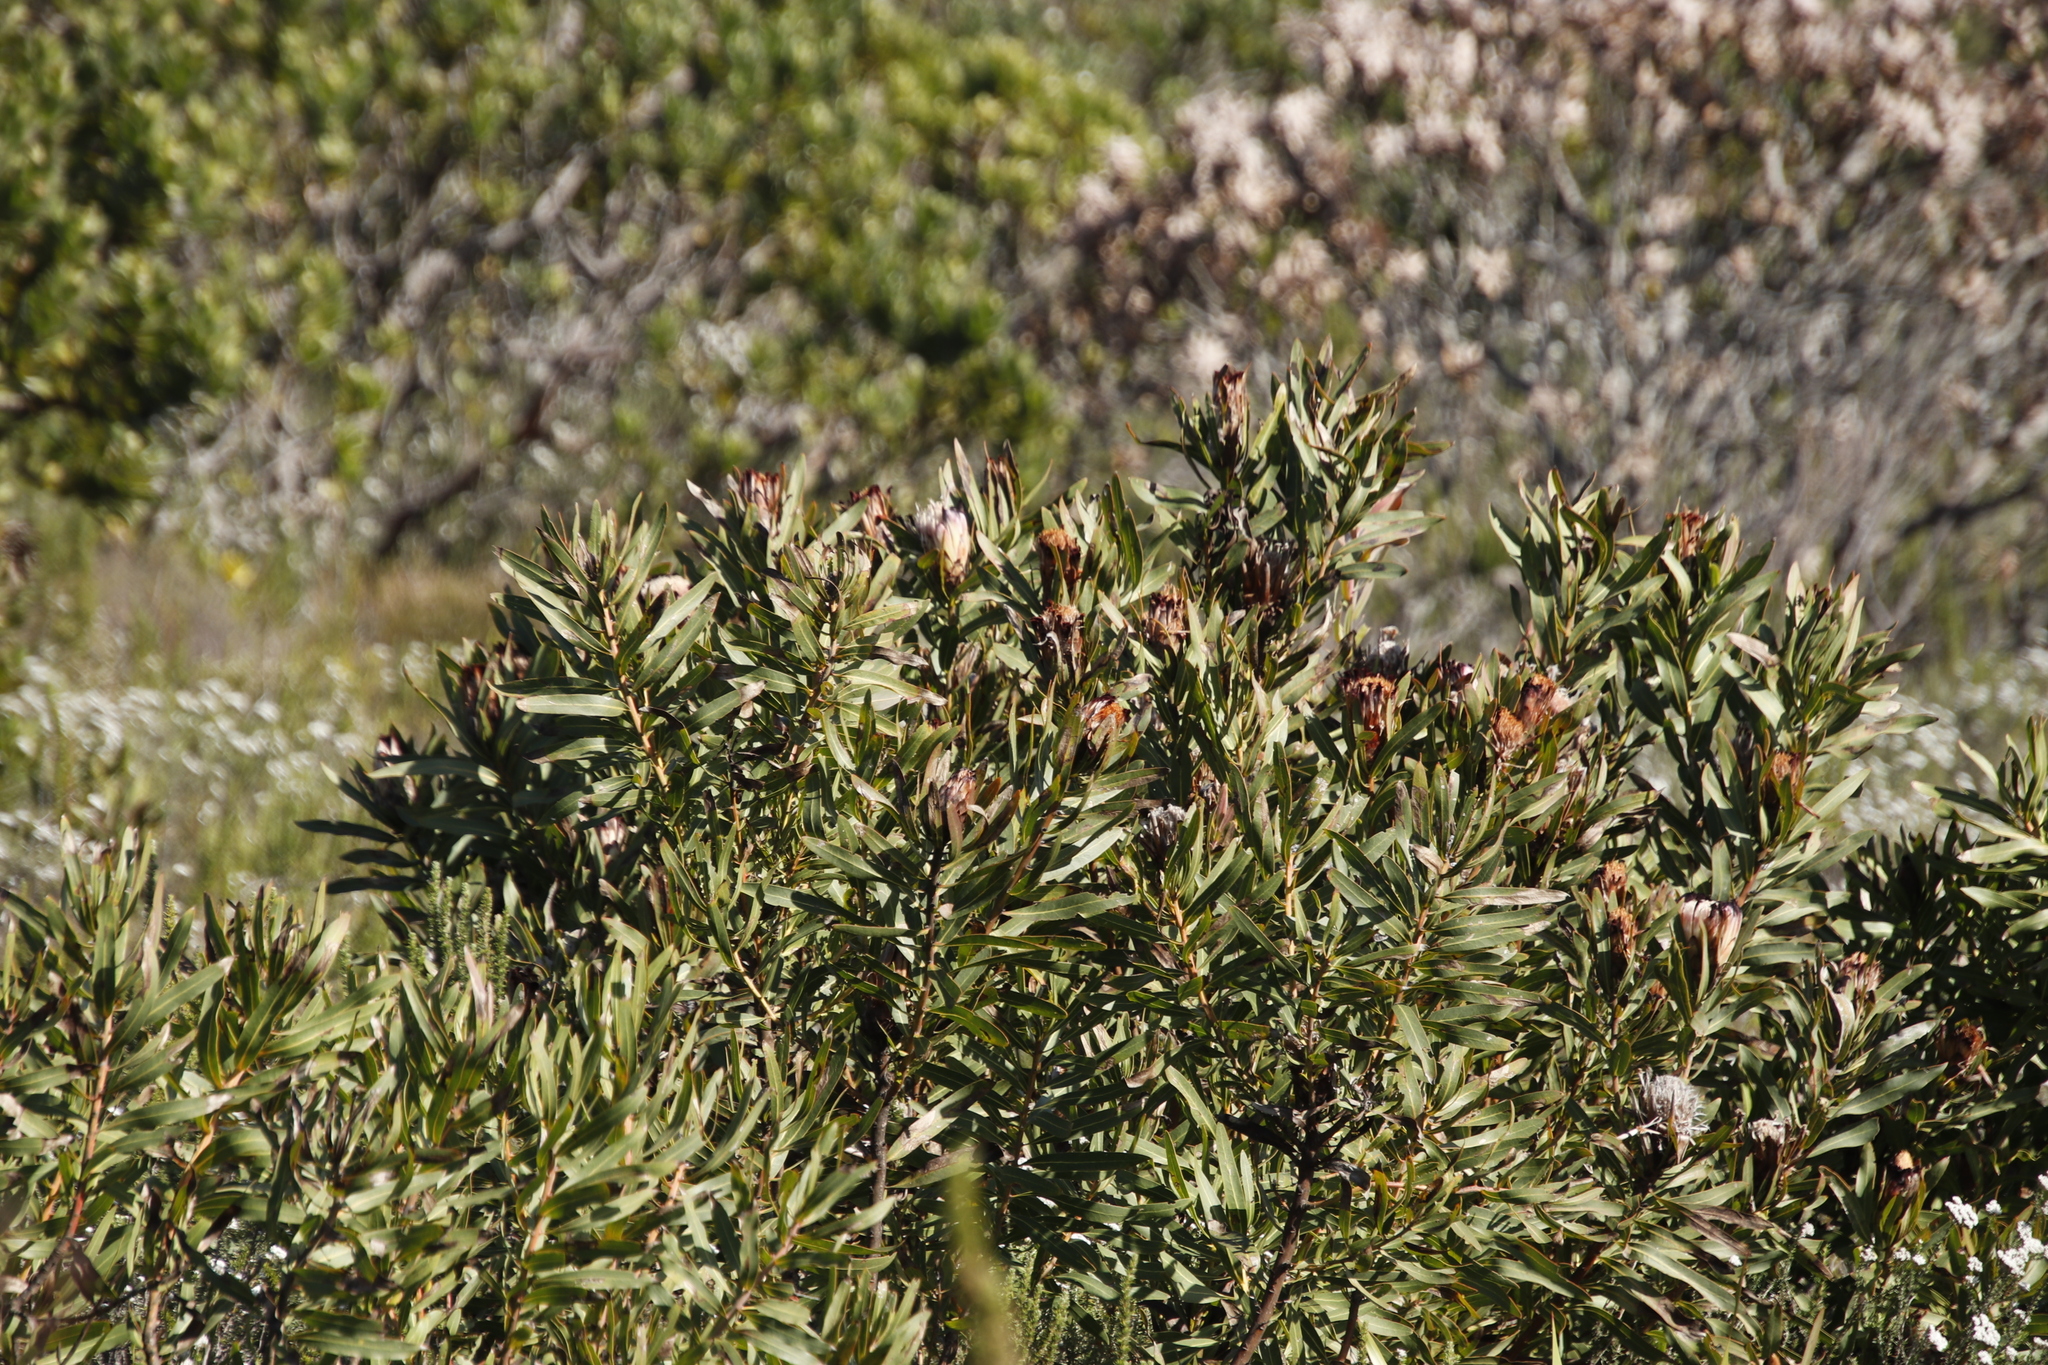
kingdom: Plantae
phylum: Tracheophyta
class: Magnoliopsida
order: Proteales
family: Proteaceae
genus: Protea
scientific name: Protea
